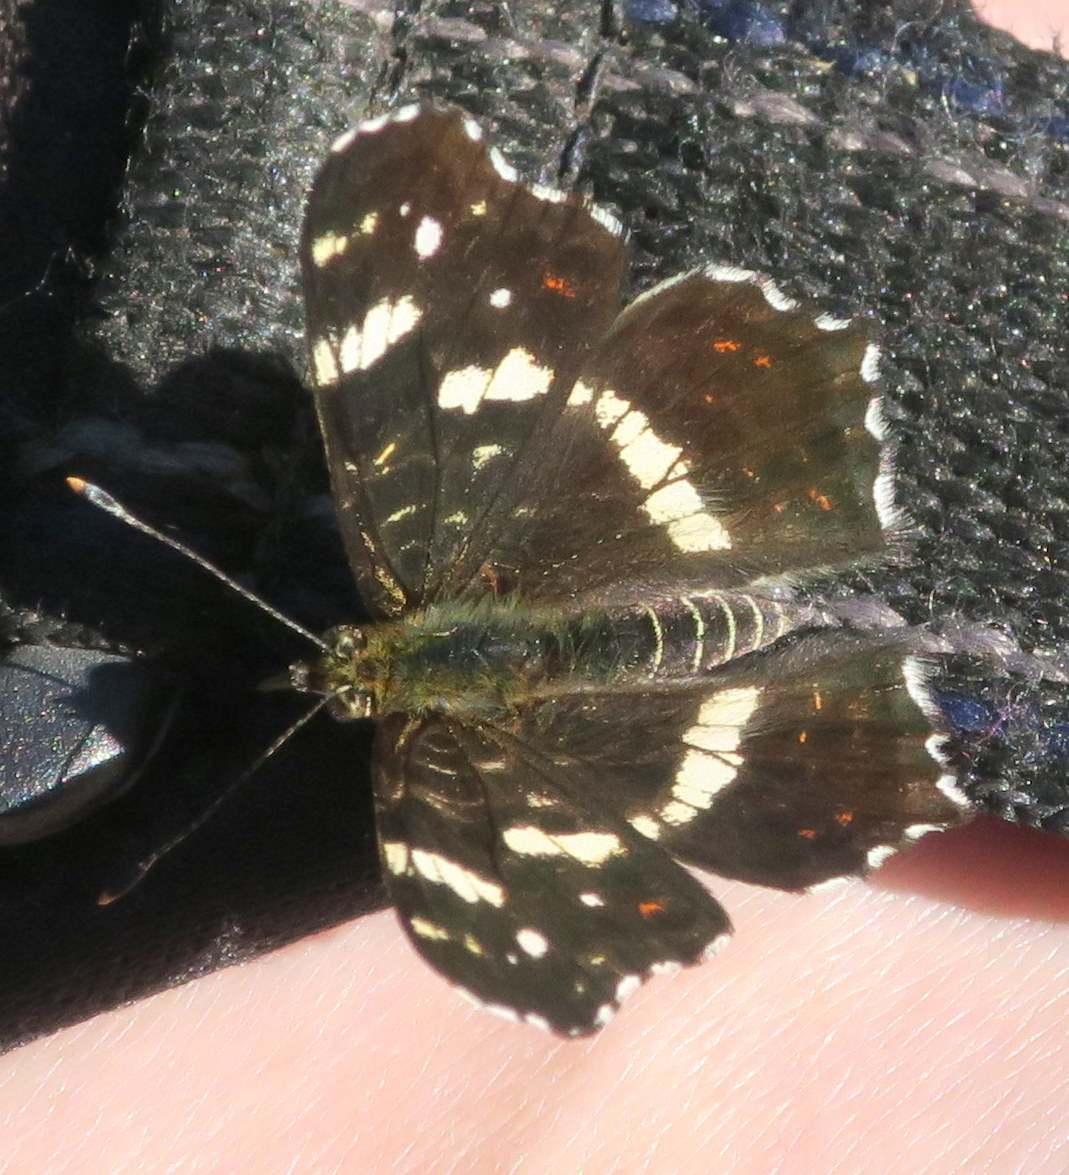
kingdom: Animalia
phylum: Arthropoda
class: Insecta
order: Lepidoptera
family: Nymphalidae
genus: Araschnia
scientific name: Araschnia levana
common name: Map butterfly
